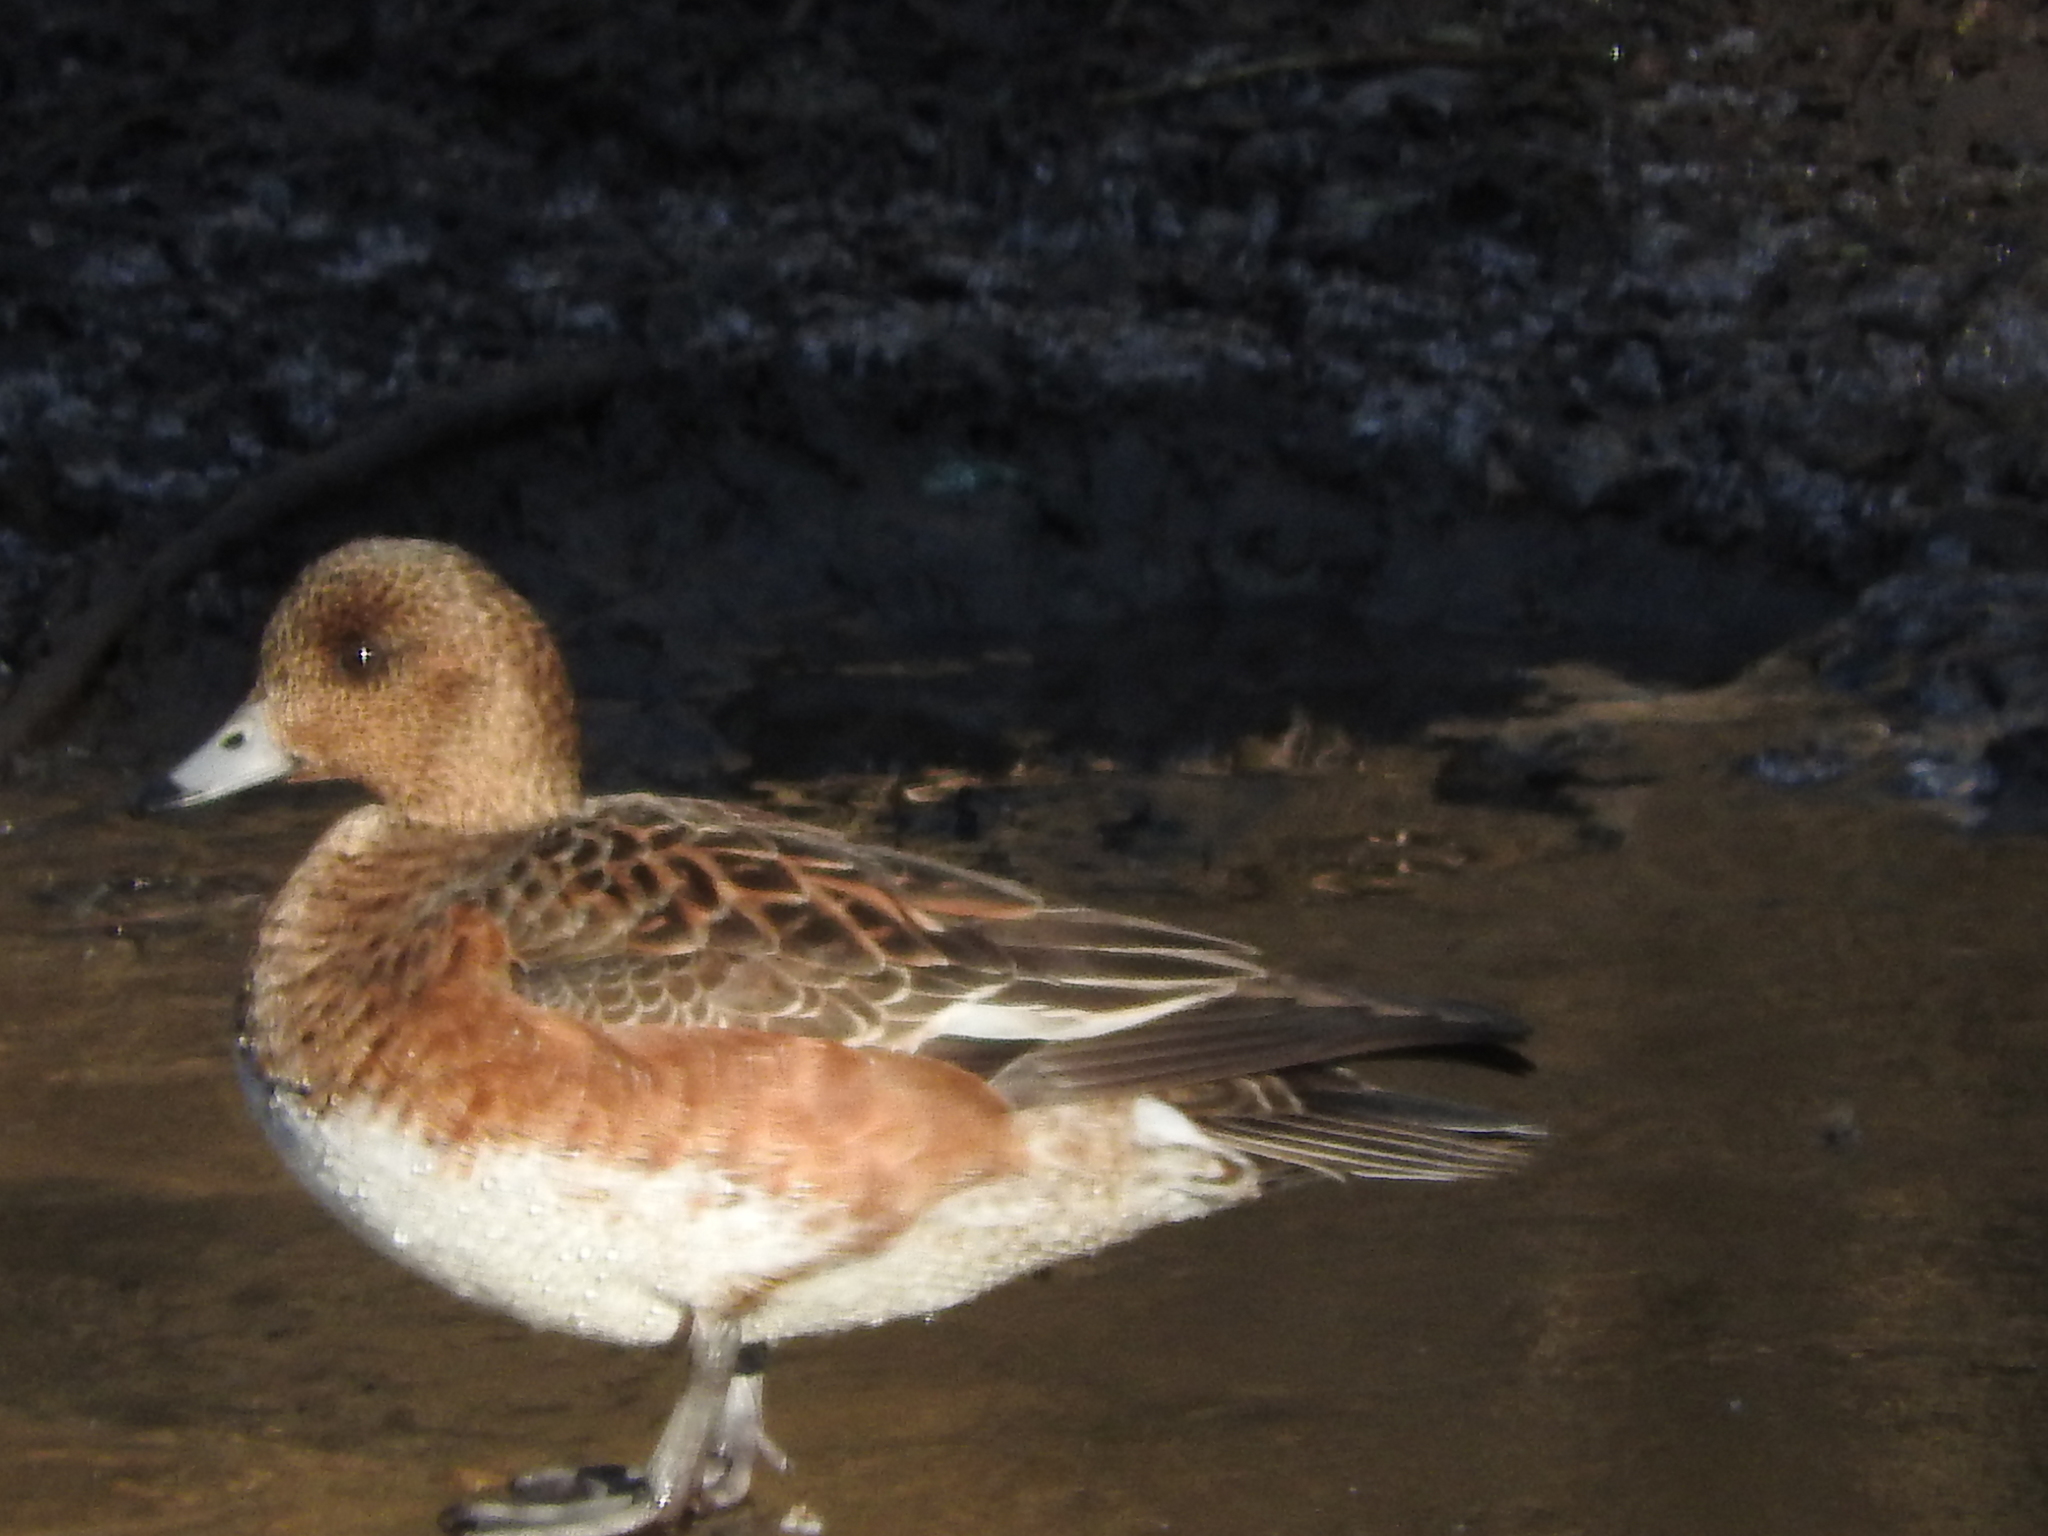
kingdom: Animalia
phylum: Chordata
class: Aves
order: Anseriformes
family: Anatidae
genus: Mareca
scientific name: Mareca penelope
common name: Eurasian wigeon
